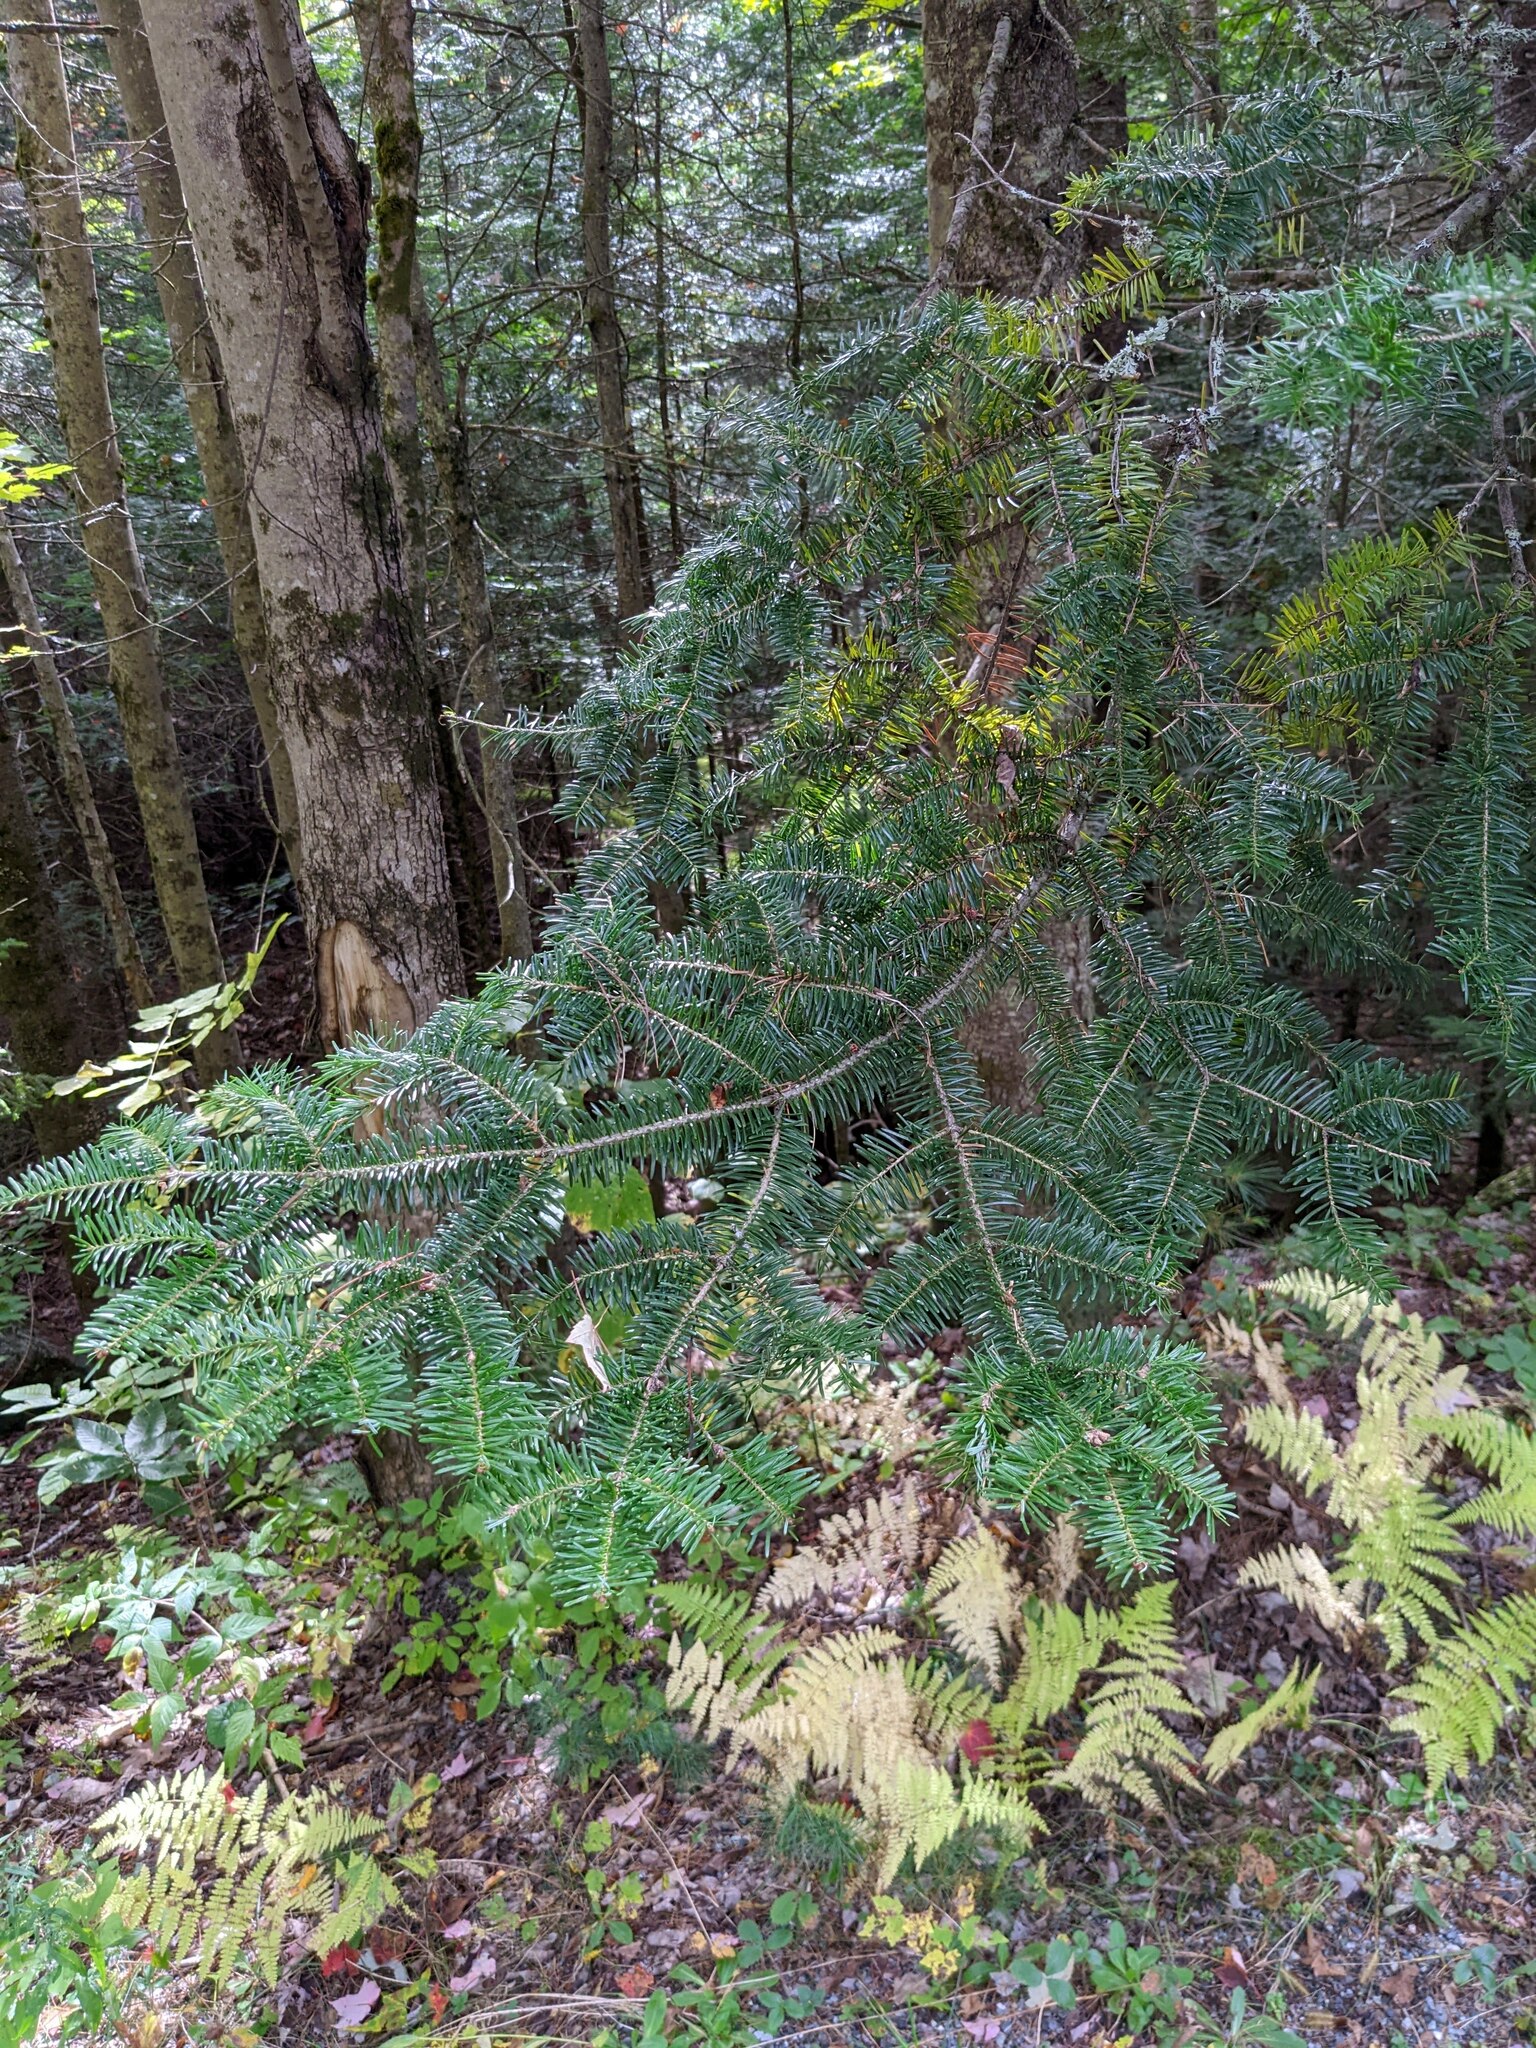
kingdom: Plantae
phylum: Tracheophyta
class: Pinopsida
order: Pinales
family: Pinaceae
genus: Abies
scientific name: Abies balsamea
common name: Balsam fir
